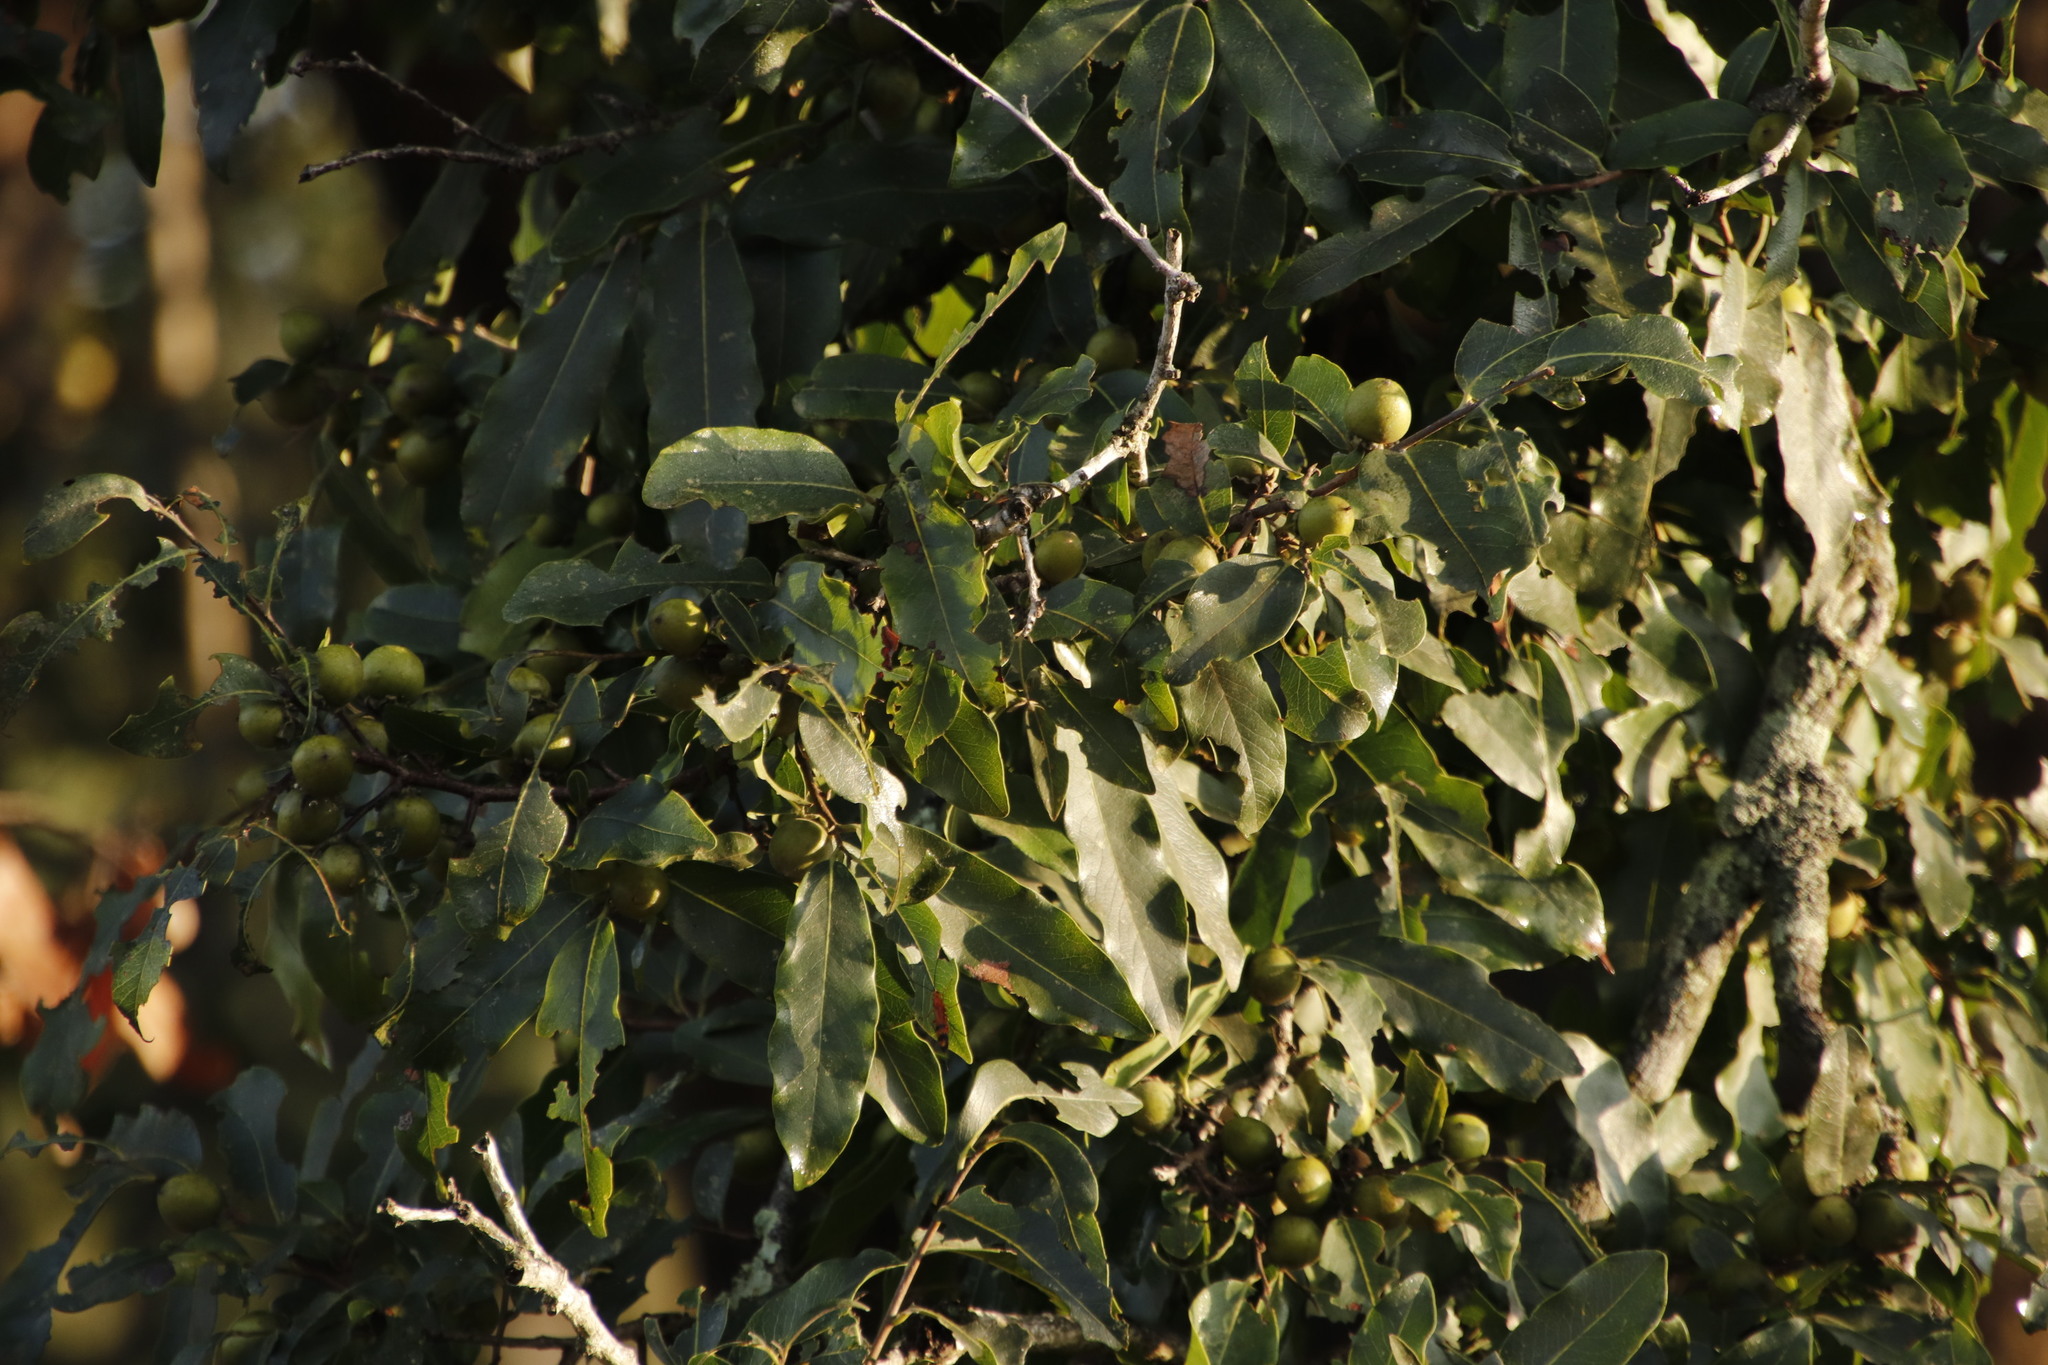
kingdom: Plantae
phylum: Tracheophyta
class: Magnoliopsida
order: Ericales
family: Ebenaceae
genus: Diospyros
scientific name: Diospyros mespiliformis
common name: Ebony diospyros
